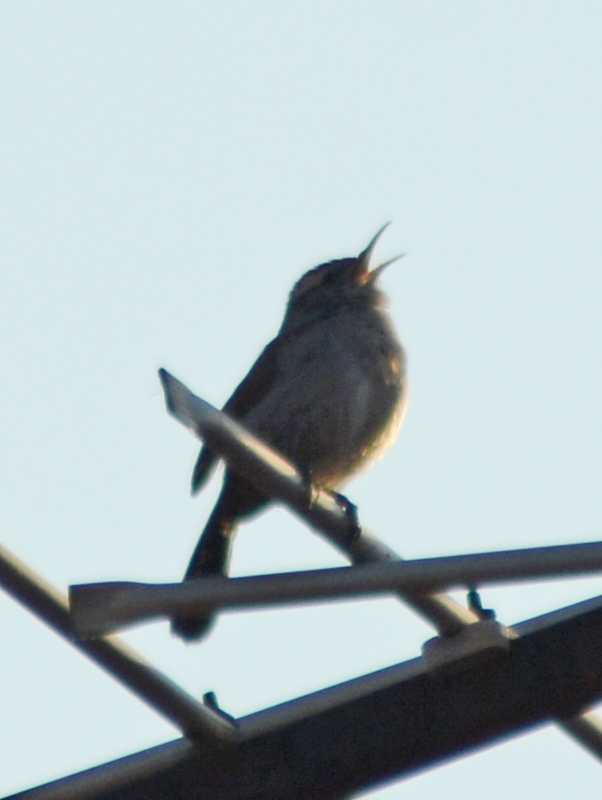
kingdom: Animalia
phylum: Chordata
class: Aves
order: Passeriformes
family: Troglodytidae
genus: Thryomanes
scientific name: Thryomanes bewickii
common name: Bewick's wren
